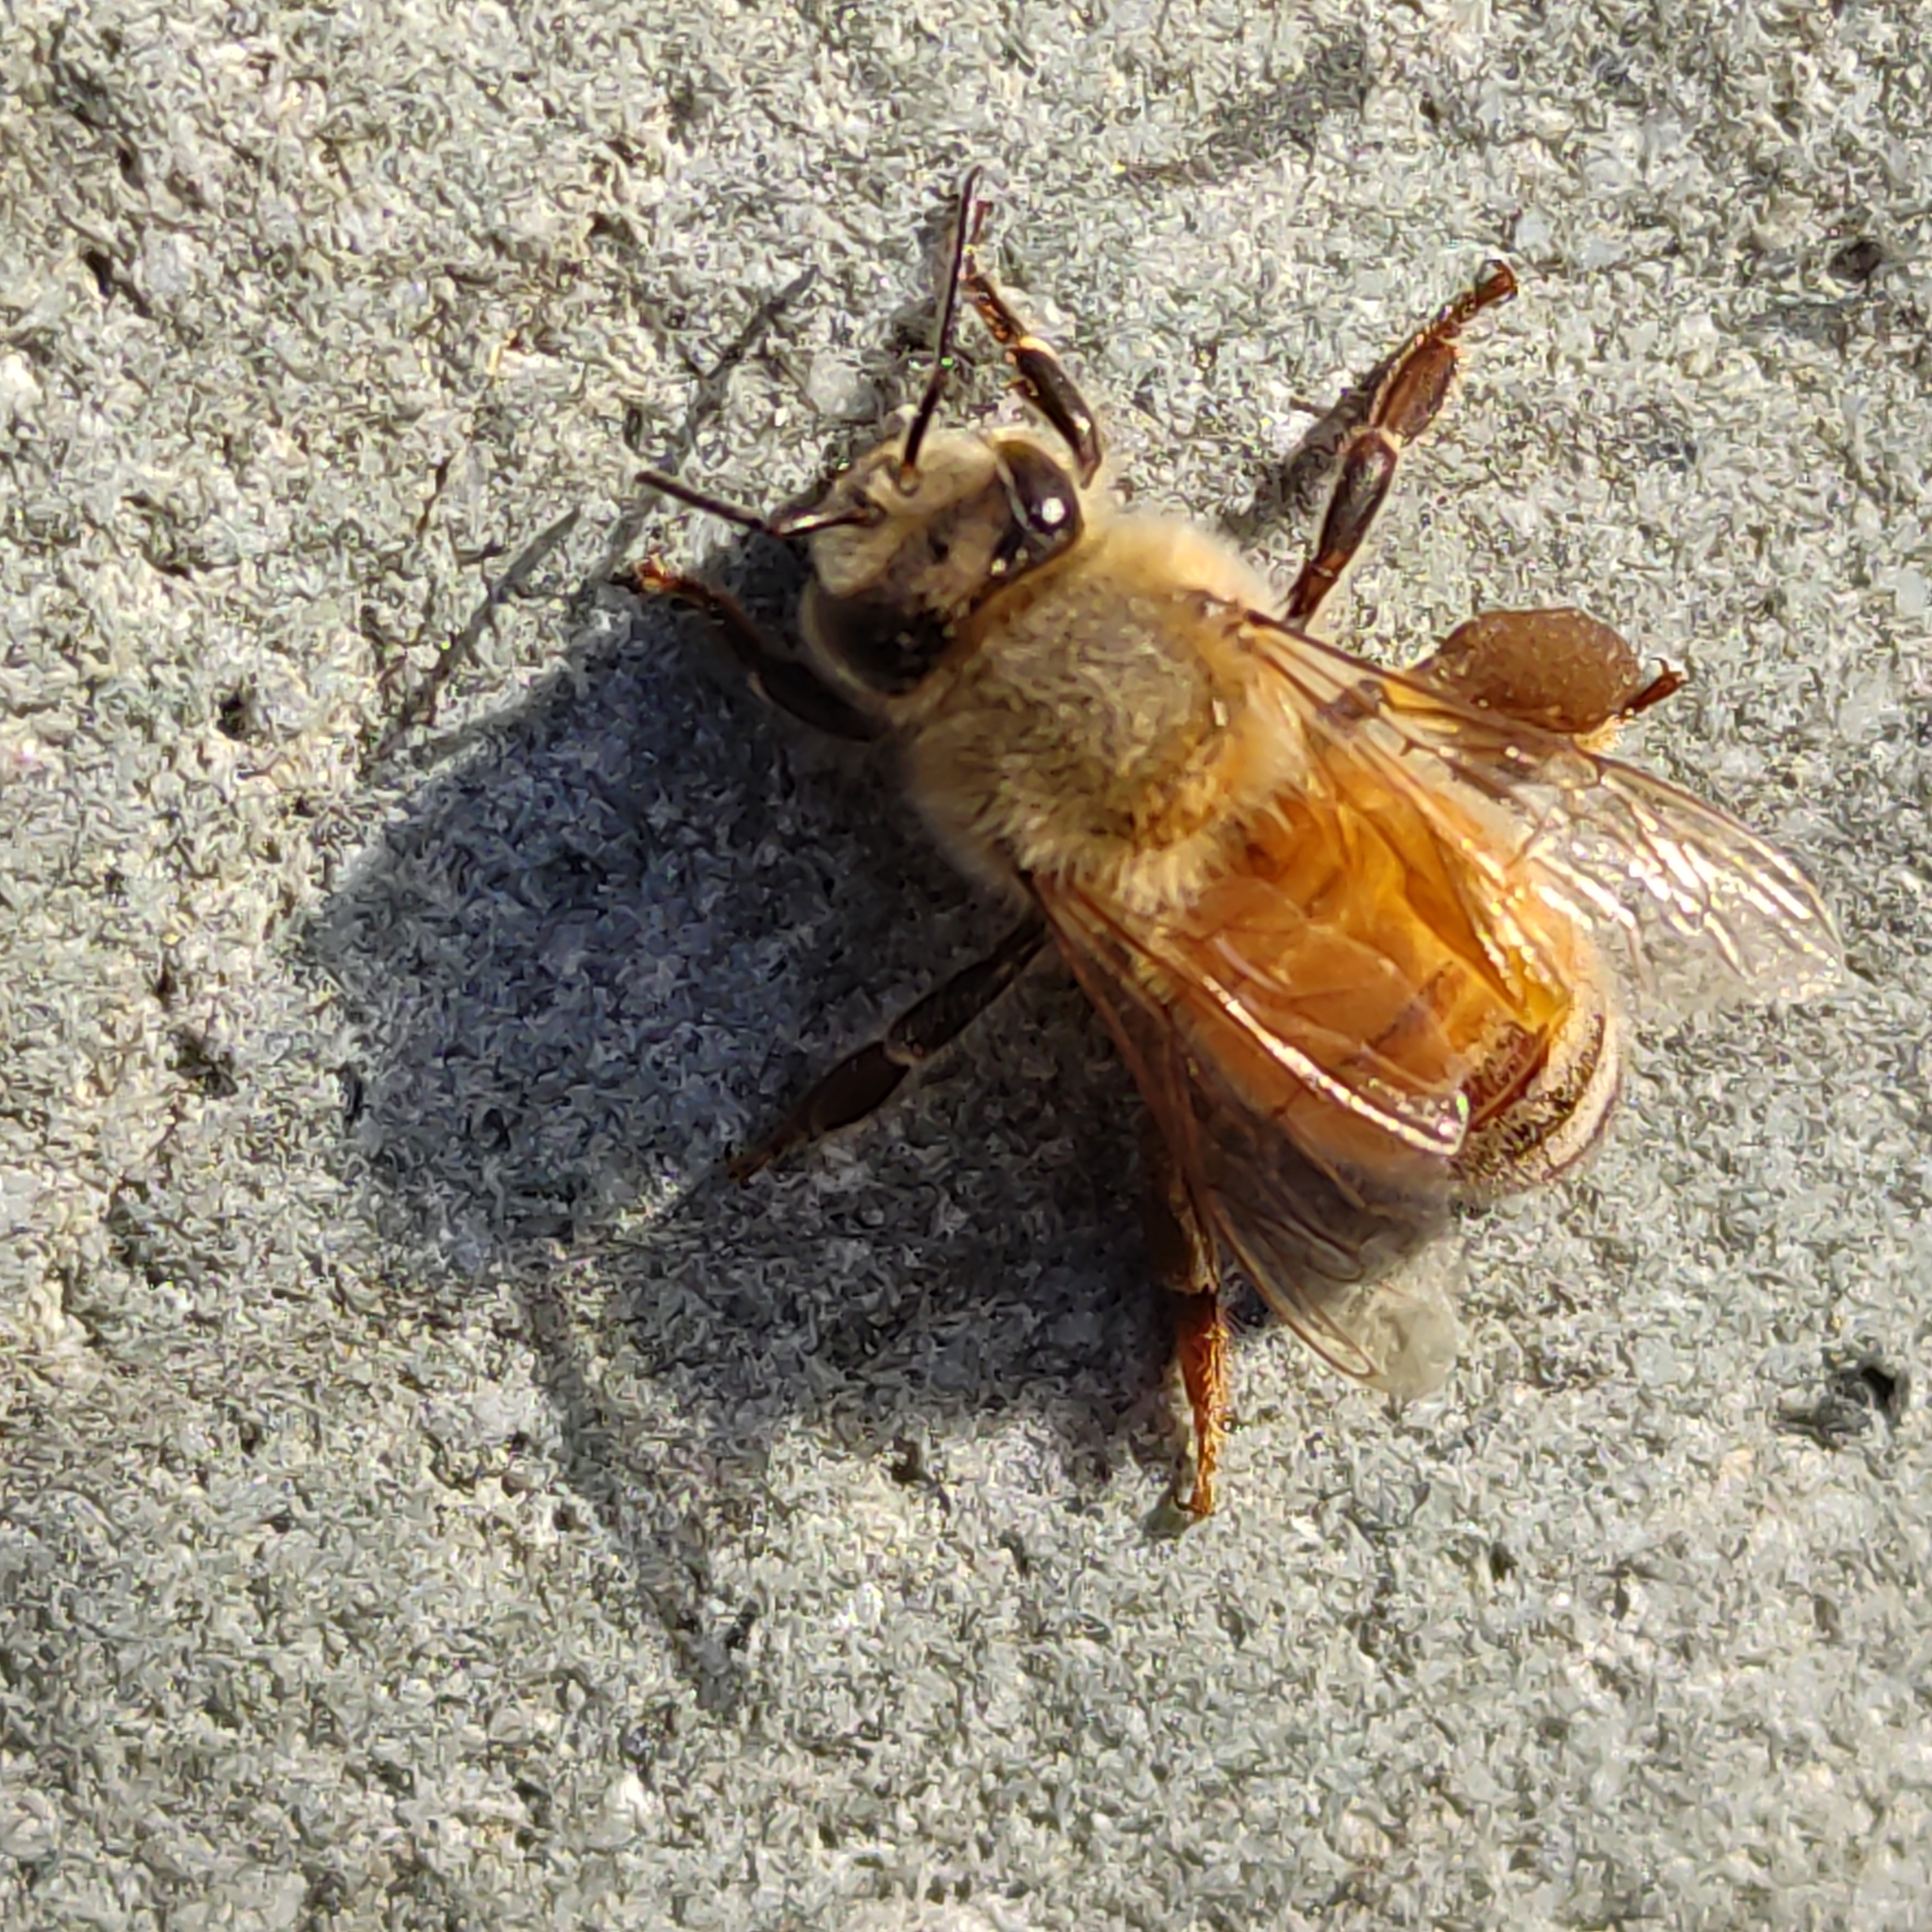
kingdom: Animalia
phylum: Arthropoda
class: Insecta
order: Hymenoptera
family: Apidae
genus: Apis
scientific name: Apis mellifera
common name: Honey bee
